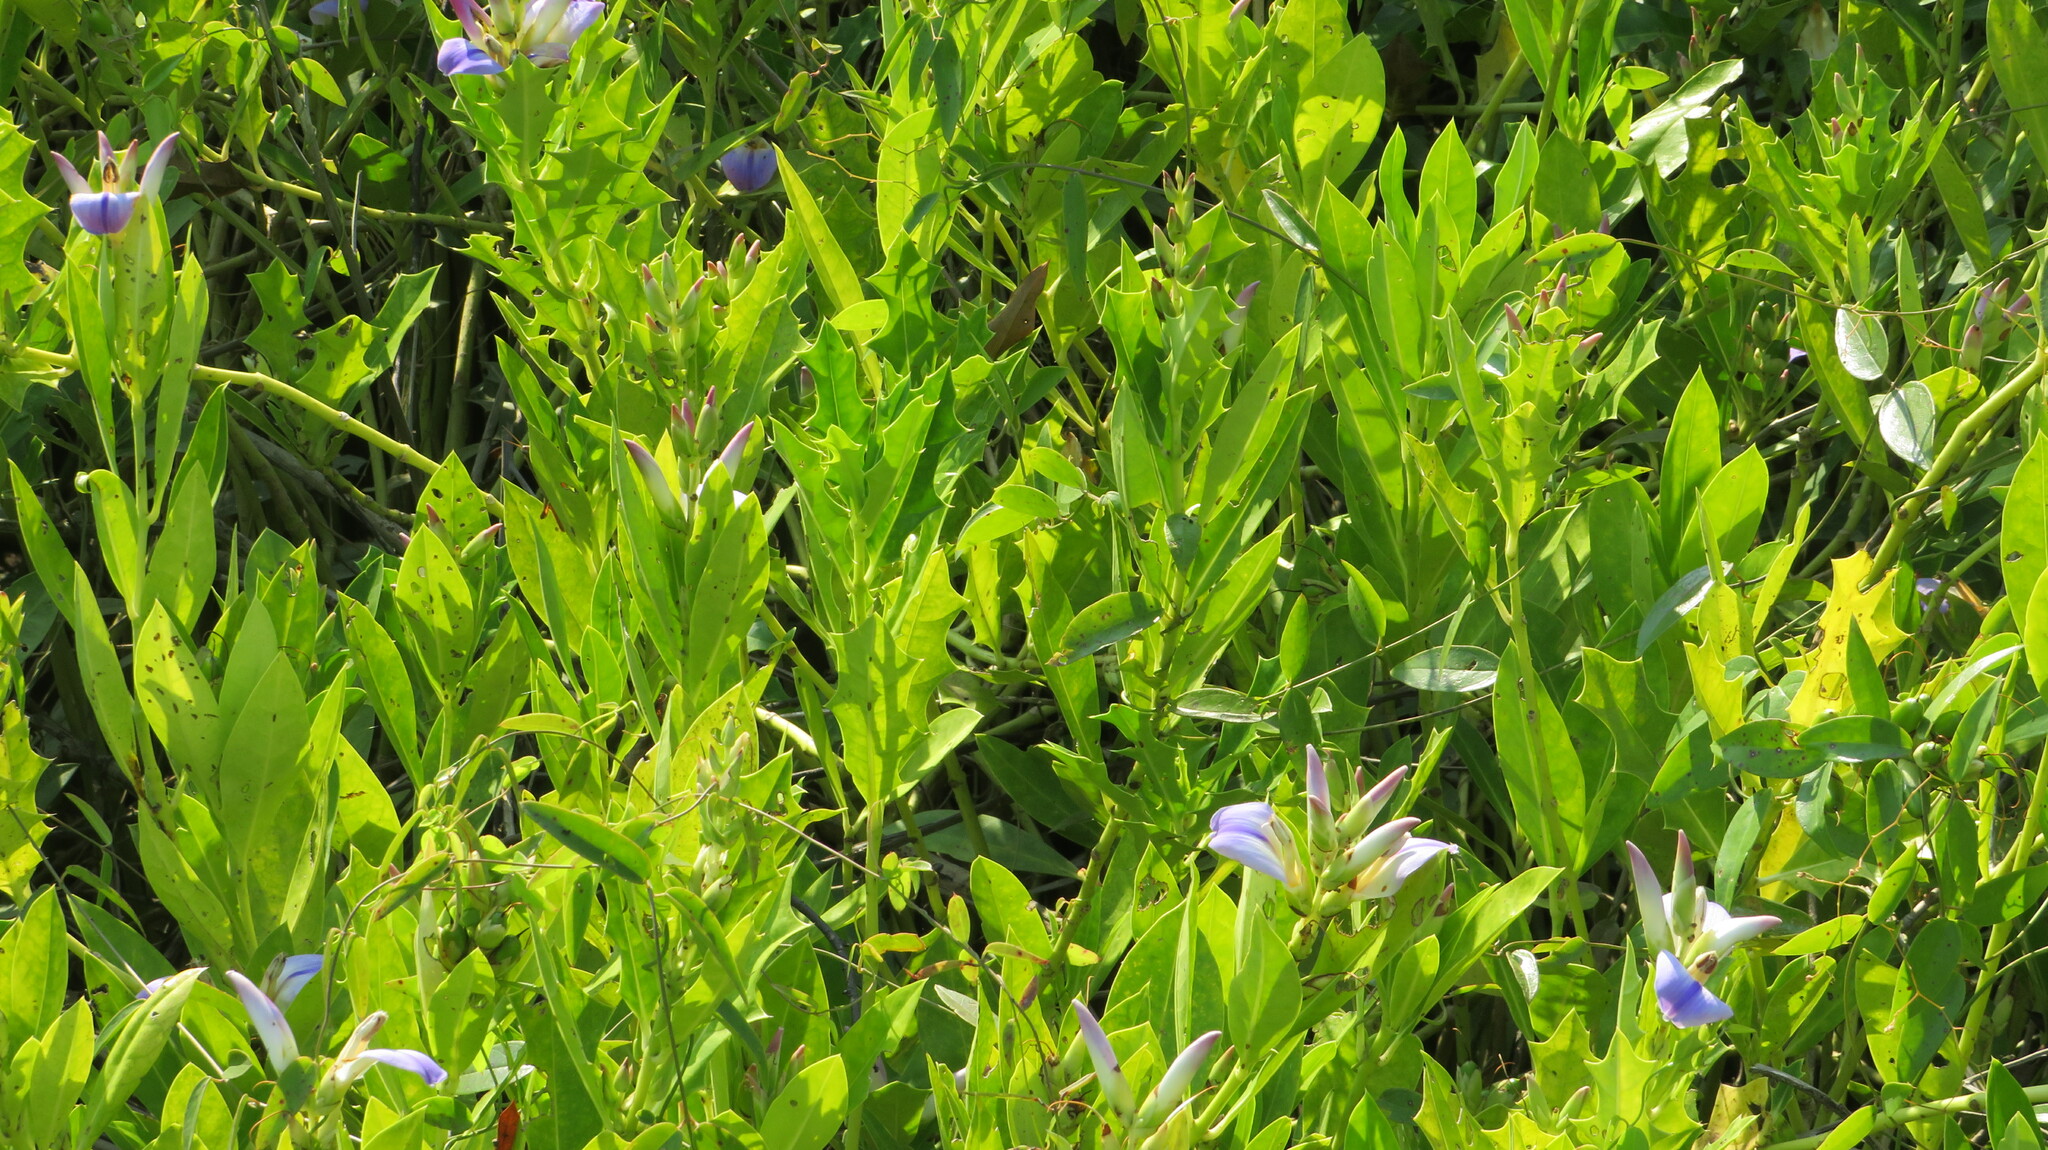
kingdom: Plantae
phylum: Tracheophyta
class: Magnoliopsida
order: Lamiales
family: Acanthaceae
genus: Acanthus
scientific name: Acanthus ilicifolius
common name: Holy mangrove
